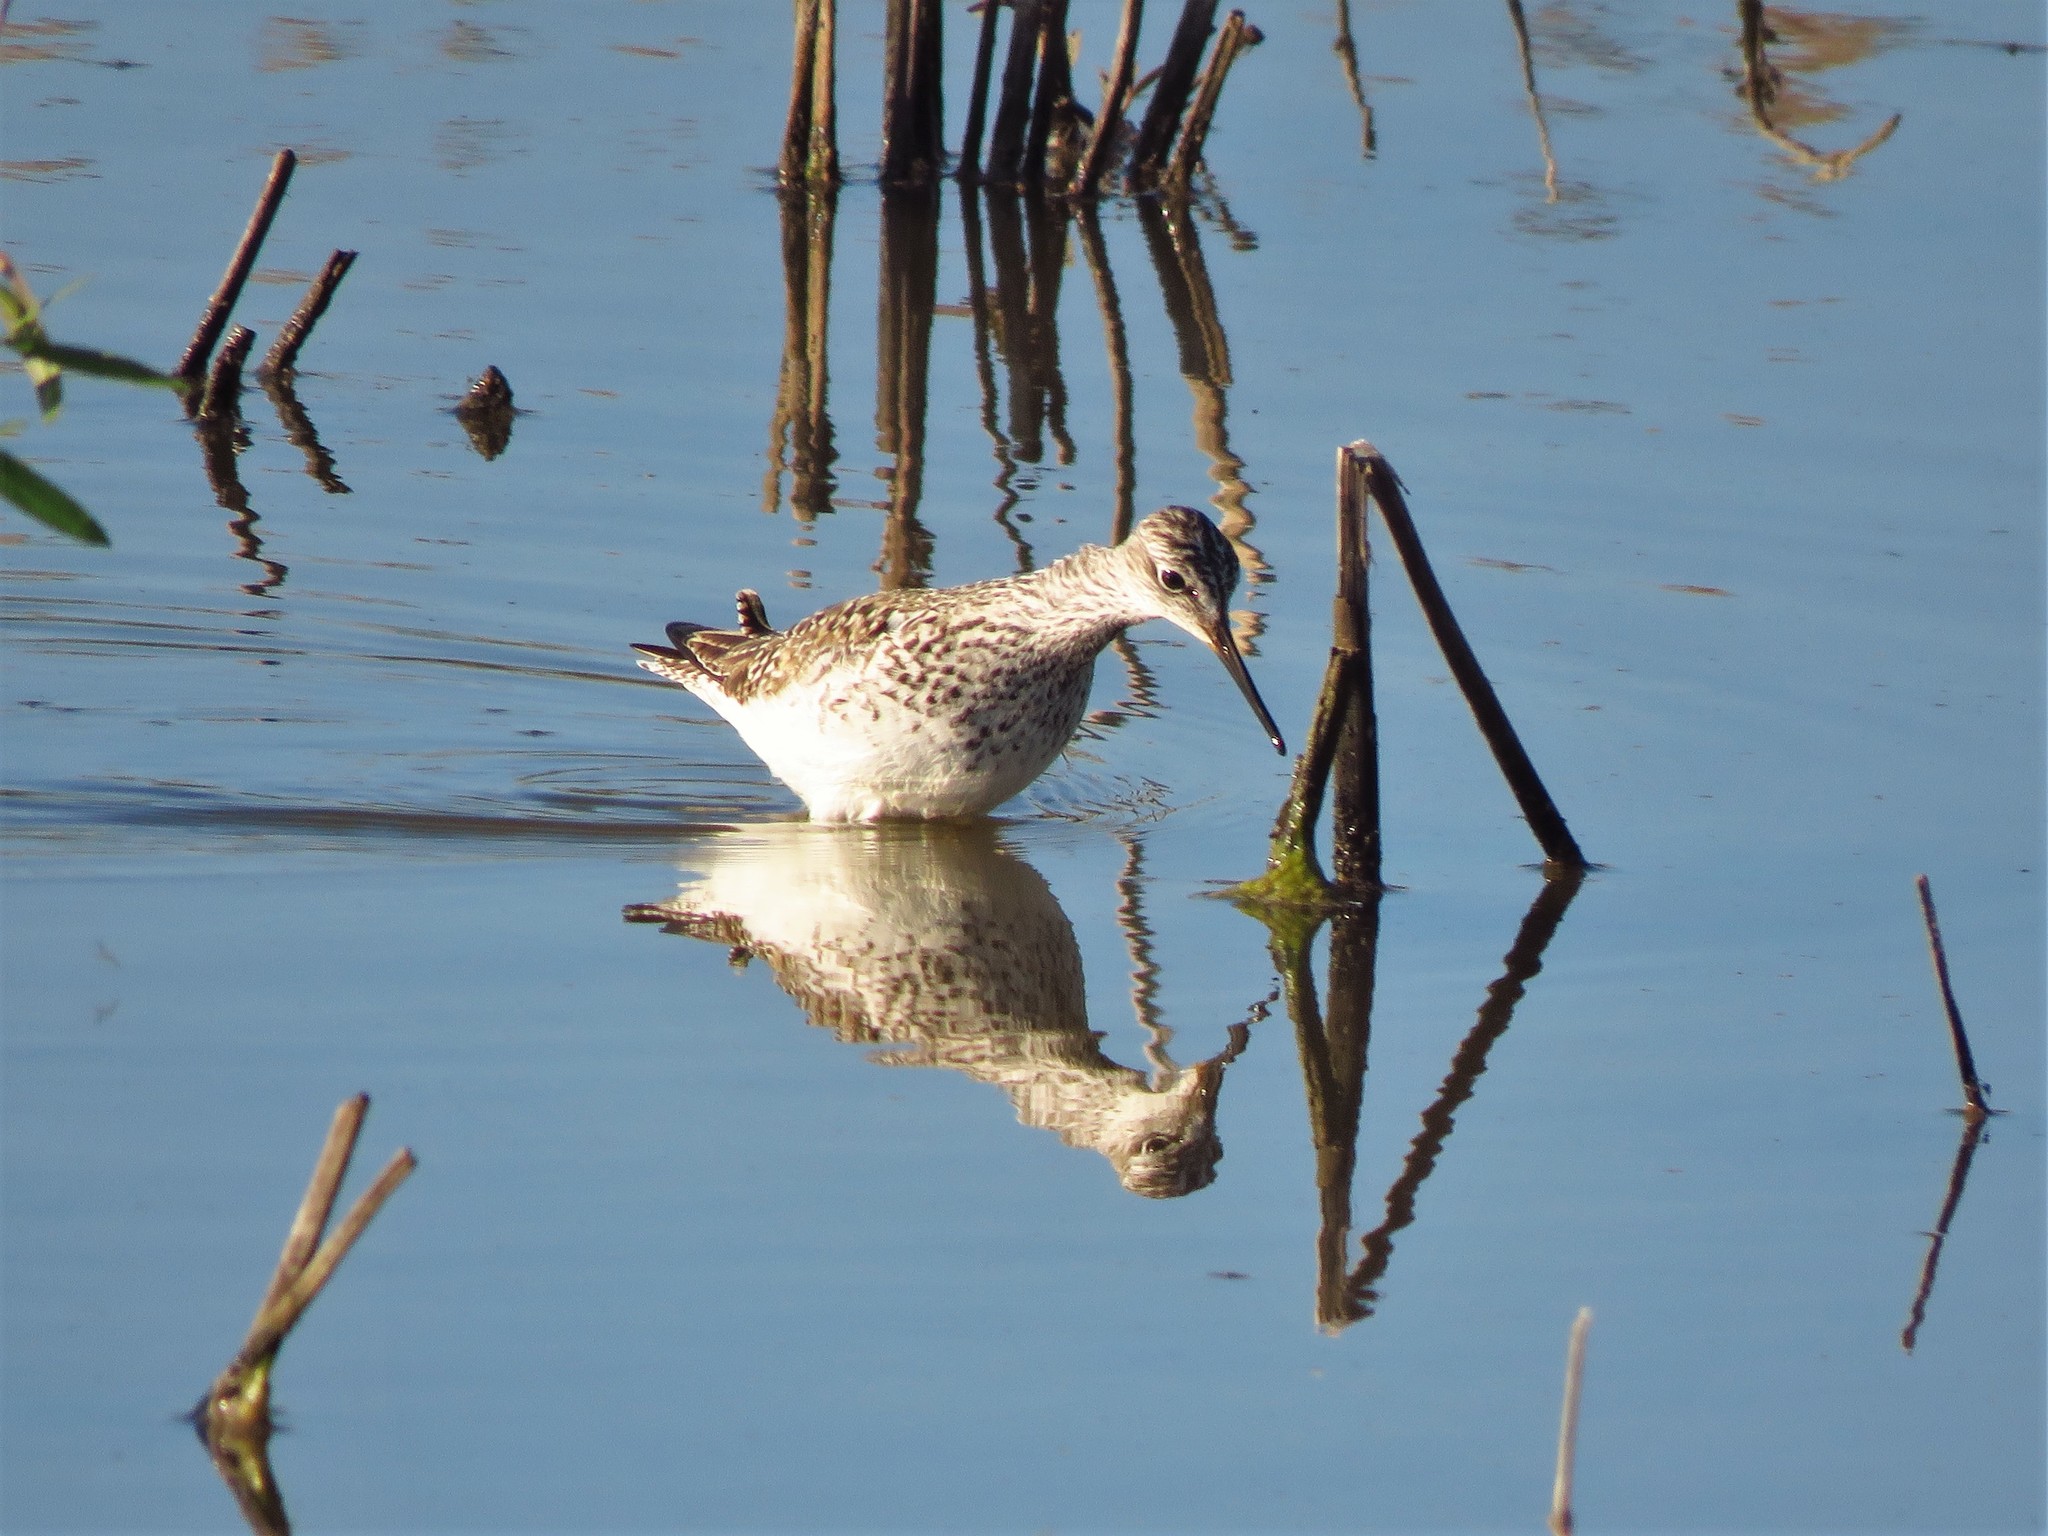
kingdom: Animalia
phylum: Chordata
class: Aves
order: Charadriiformes
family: Scolopacidae
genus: Tringa
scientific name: Tringa flavipes
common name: Lesser yellowlegs
